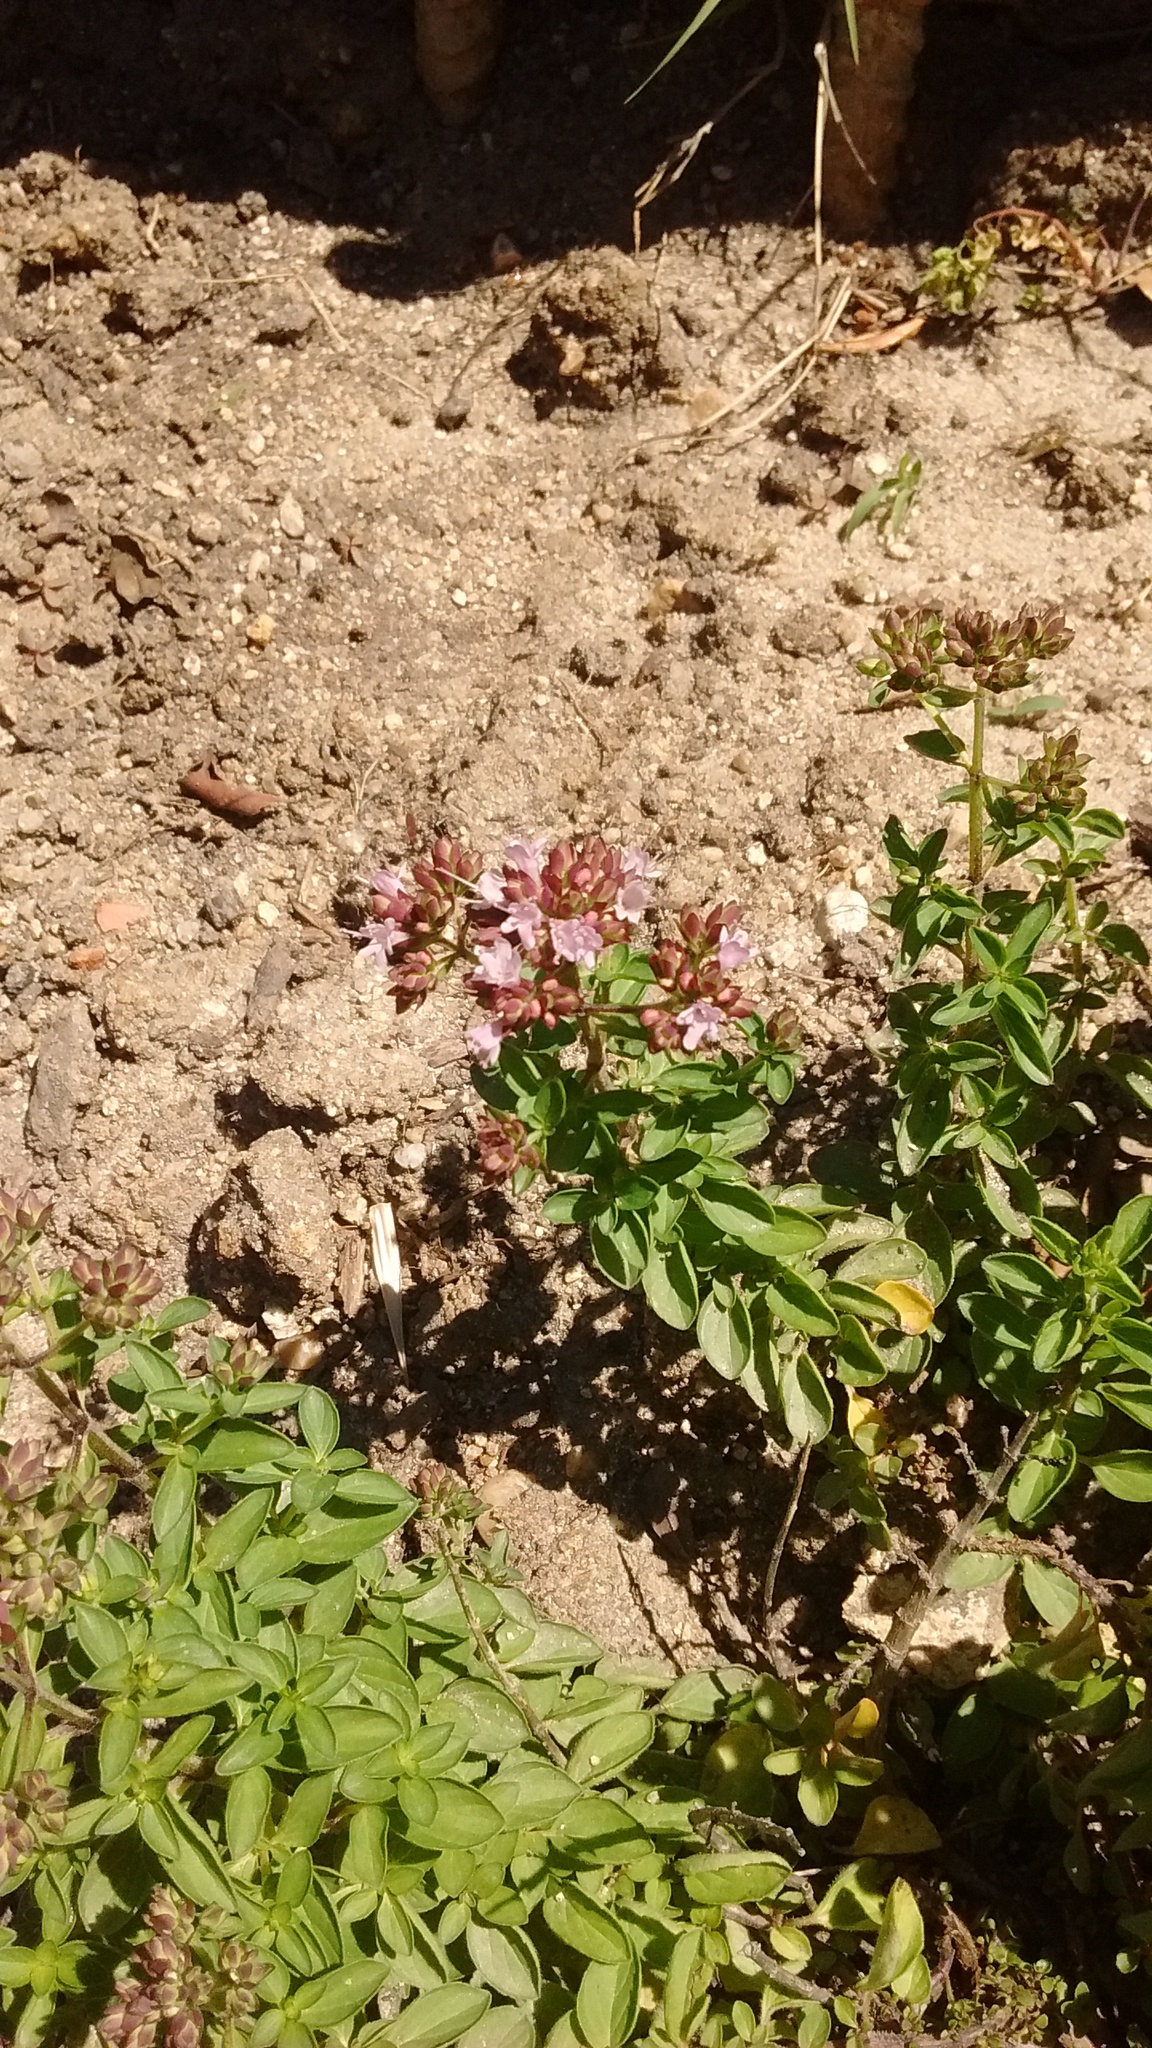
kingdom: Plantae
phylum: Tracheophyta
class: Magnoliopsida
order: Lamiales
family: Lamiaceae
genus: Origanum
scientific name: Origanum vulgare
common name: Wild marjoram
